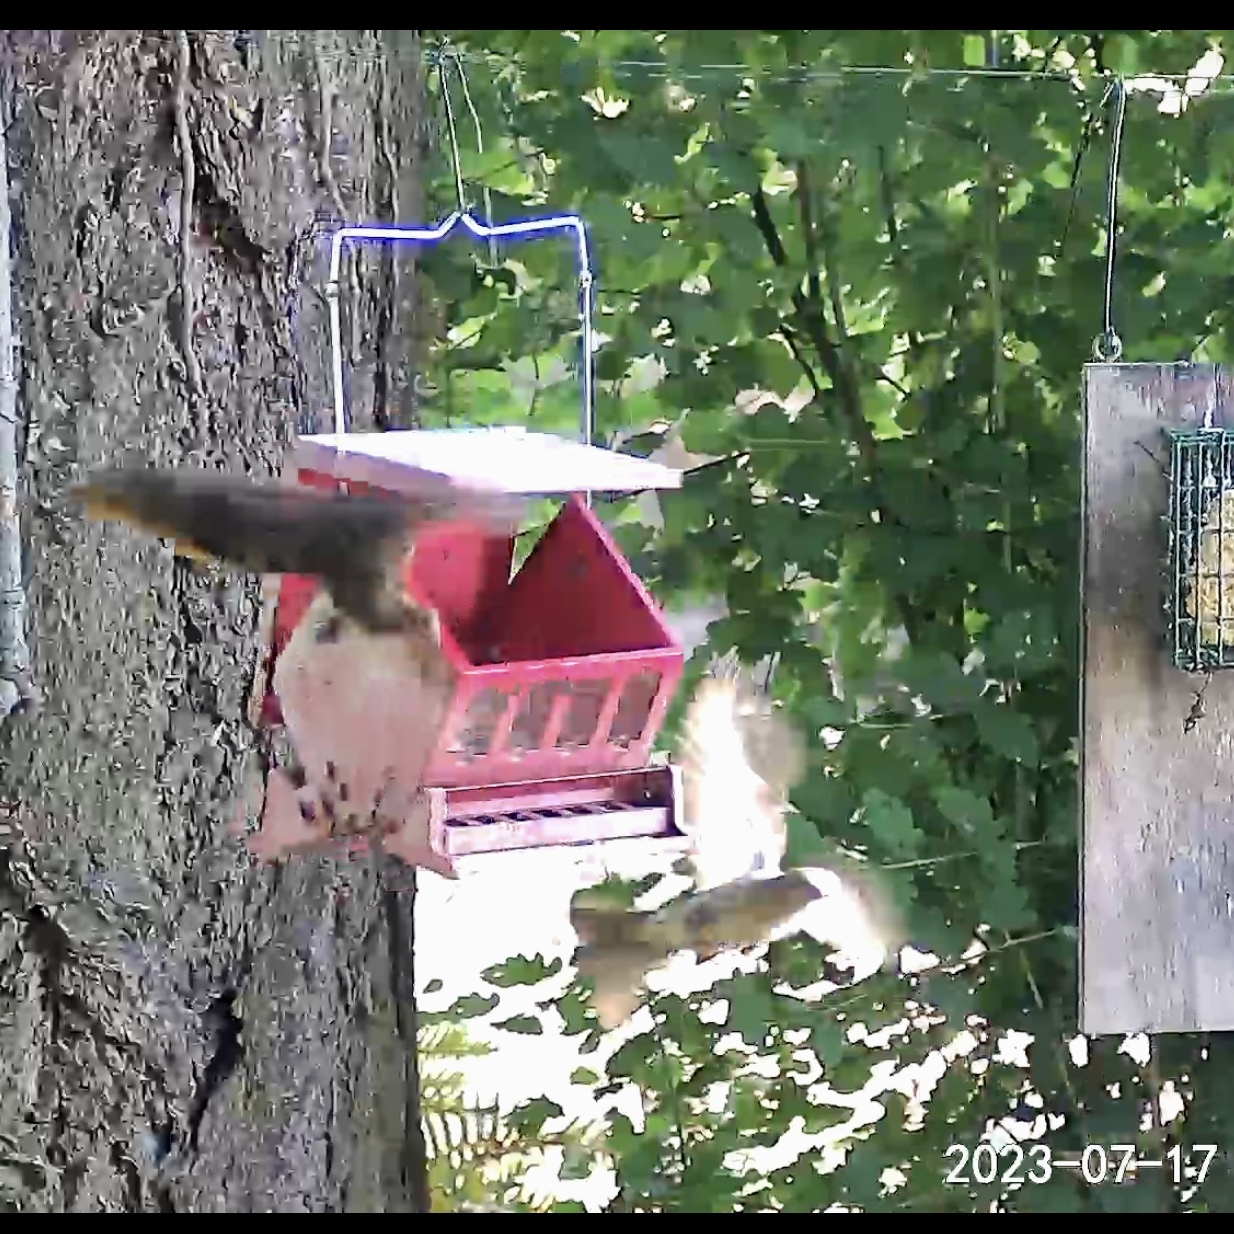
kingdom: Animalia
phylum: Chordata
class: Mammalia
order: Rodentia
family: Sciuridae
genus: Tamiasciurus
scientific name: Tamiasciurus douglasii
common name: Douglas's squirrel
